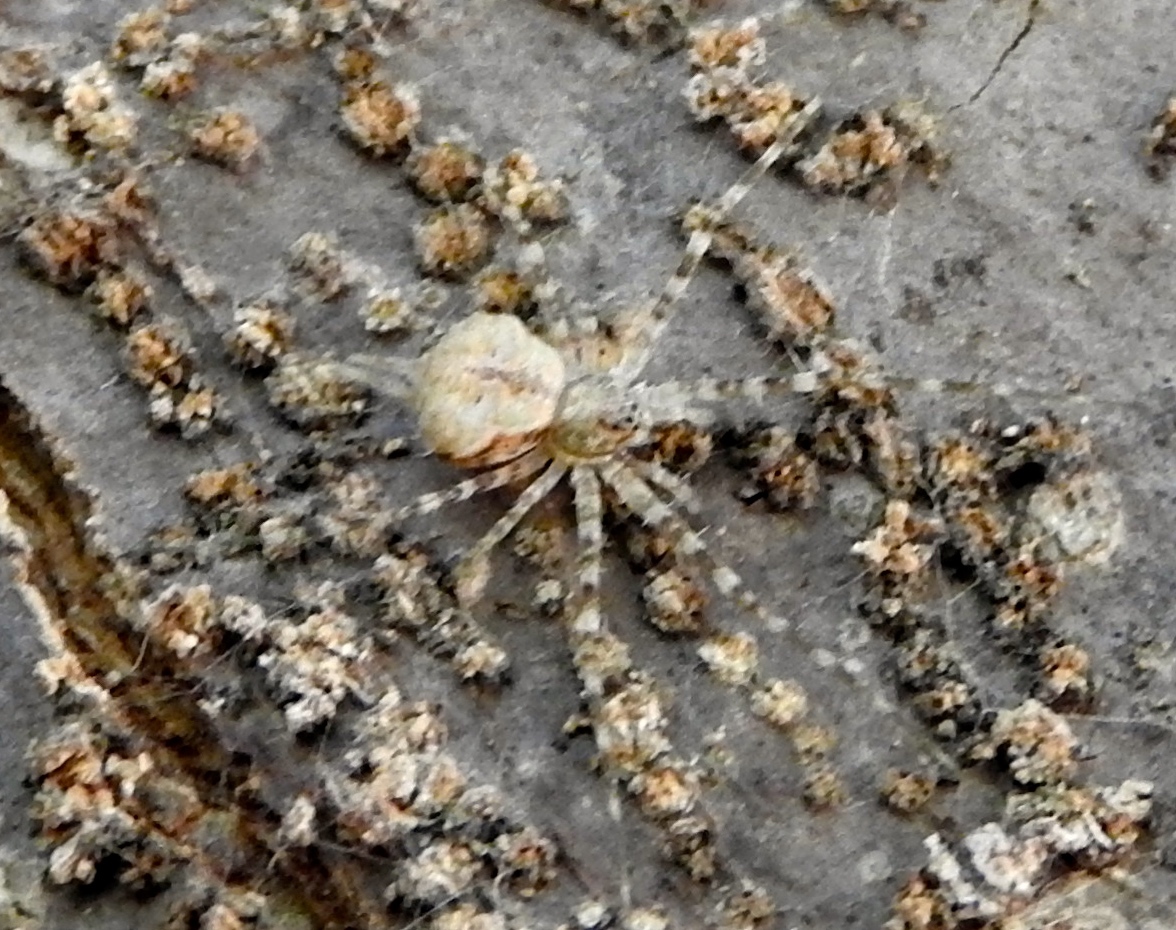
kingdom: Animalia
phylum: Arthropoda
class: Arachnida
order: Araneae
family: Hersiliidae
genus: Neotama
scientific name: Neotama mexicana
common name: Tree trunk spiders
